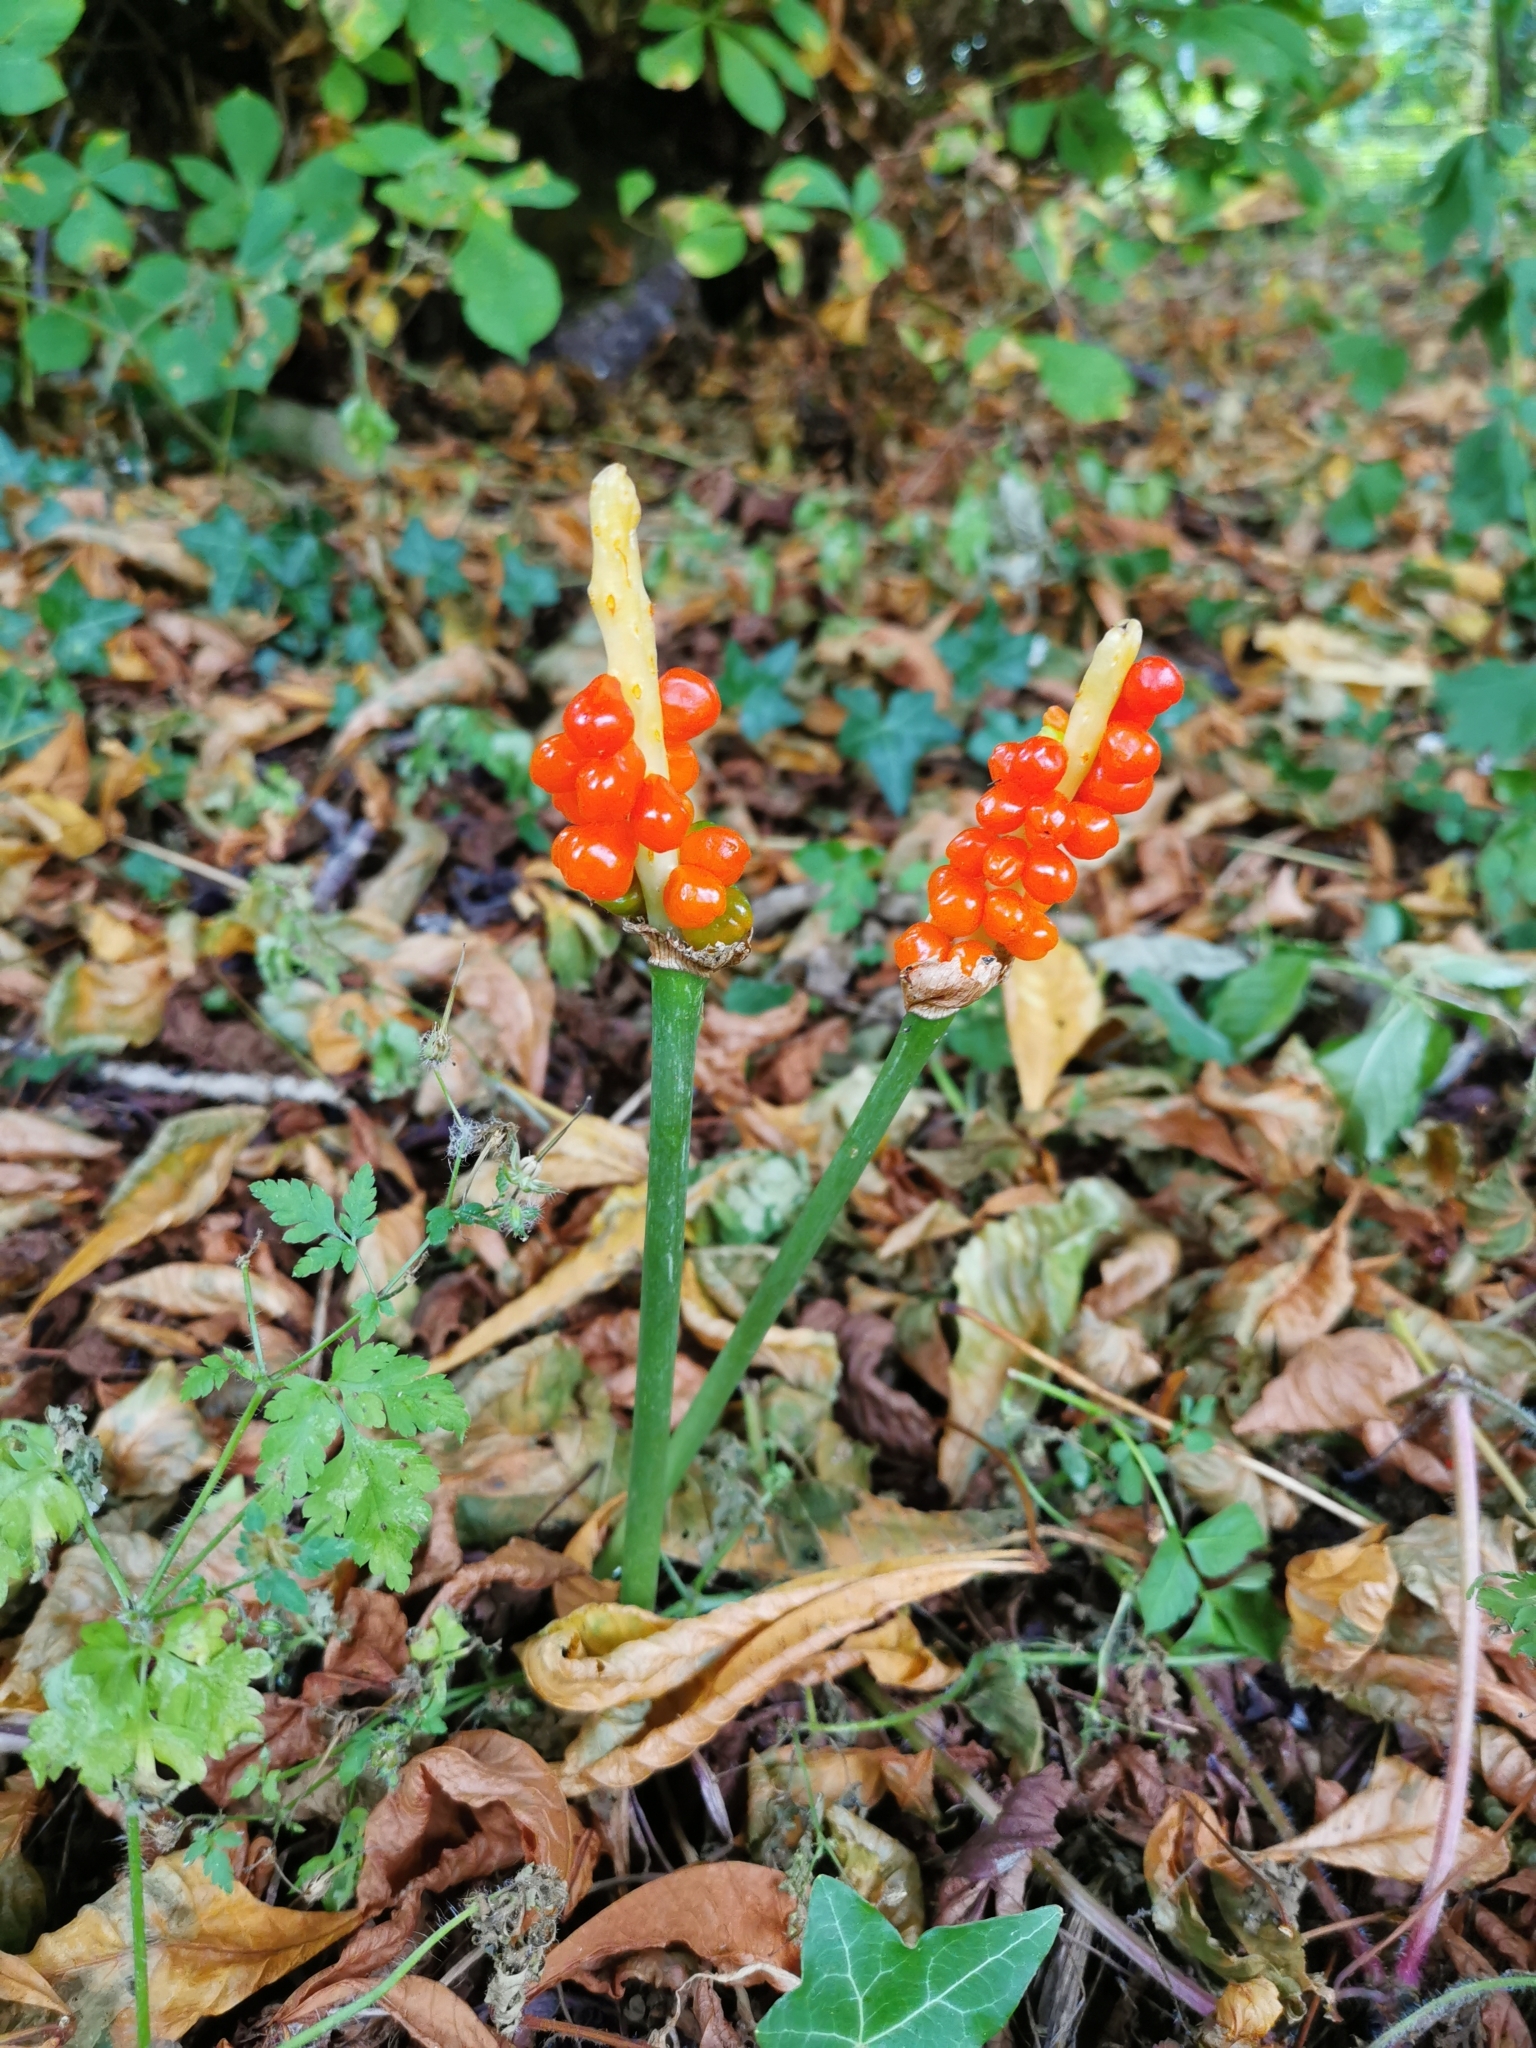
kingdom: Plantae
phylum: Tracheophyta
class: Liliopsida
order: Alismatales
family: Araceae
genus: Arum
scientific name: Arum maculatum
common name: Lords-and-ladies
